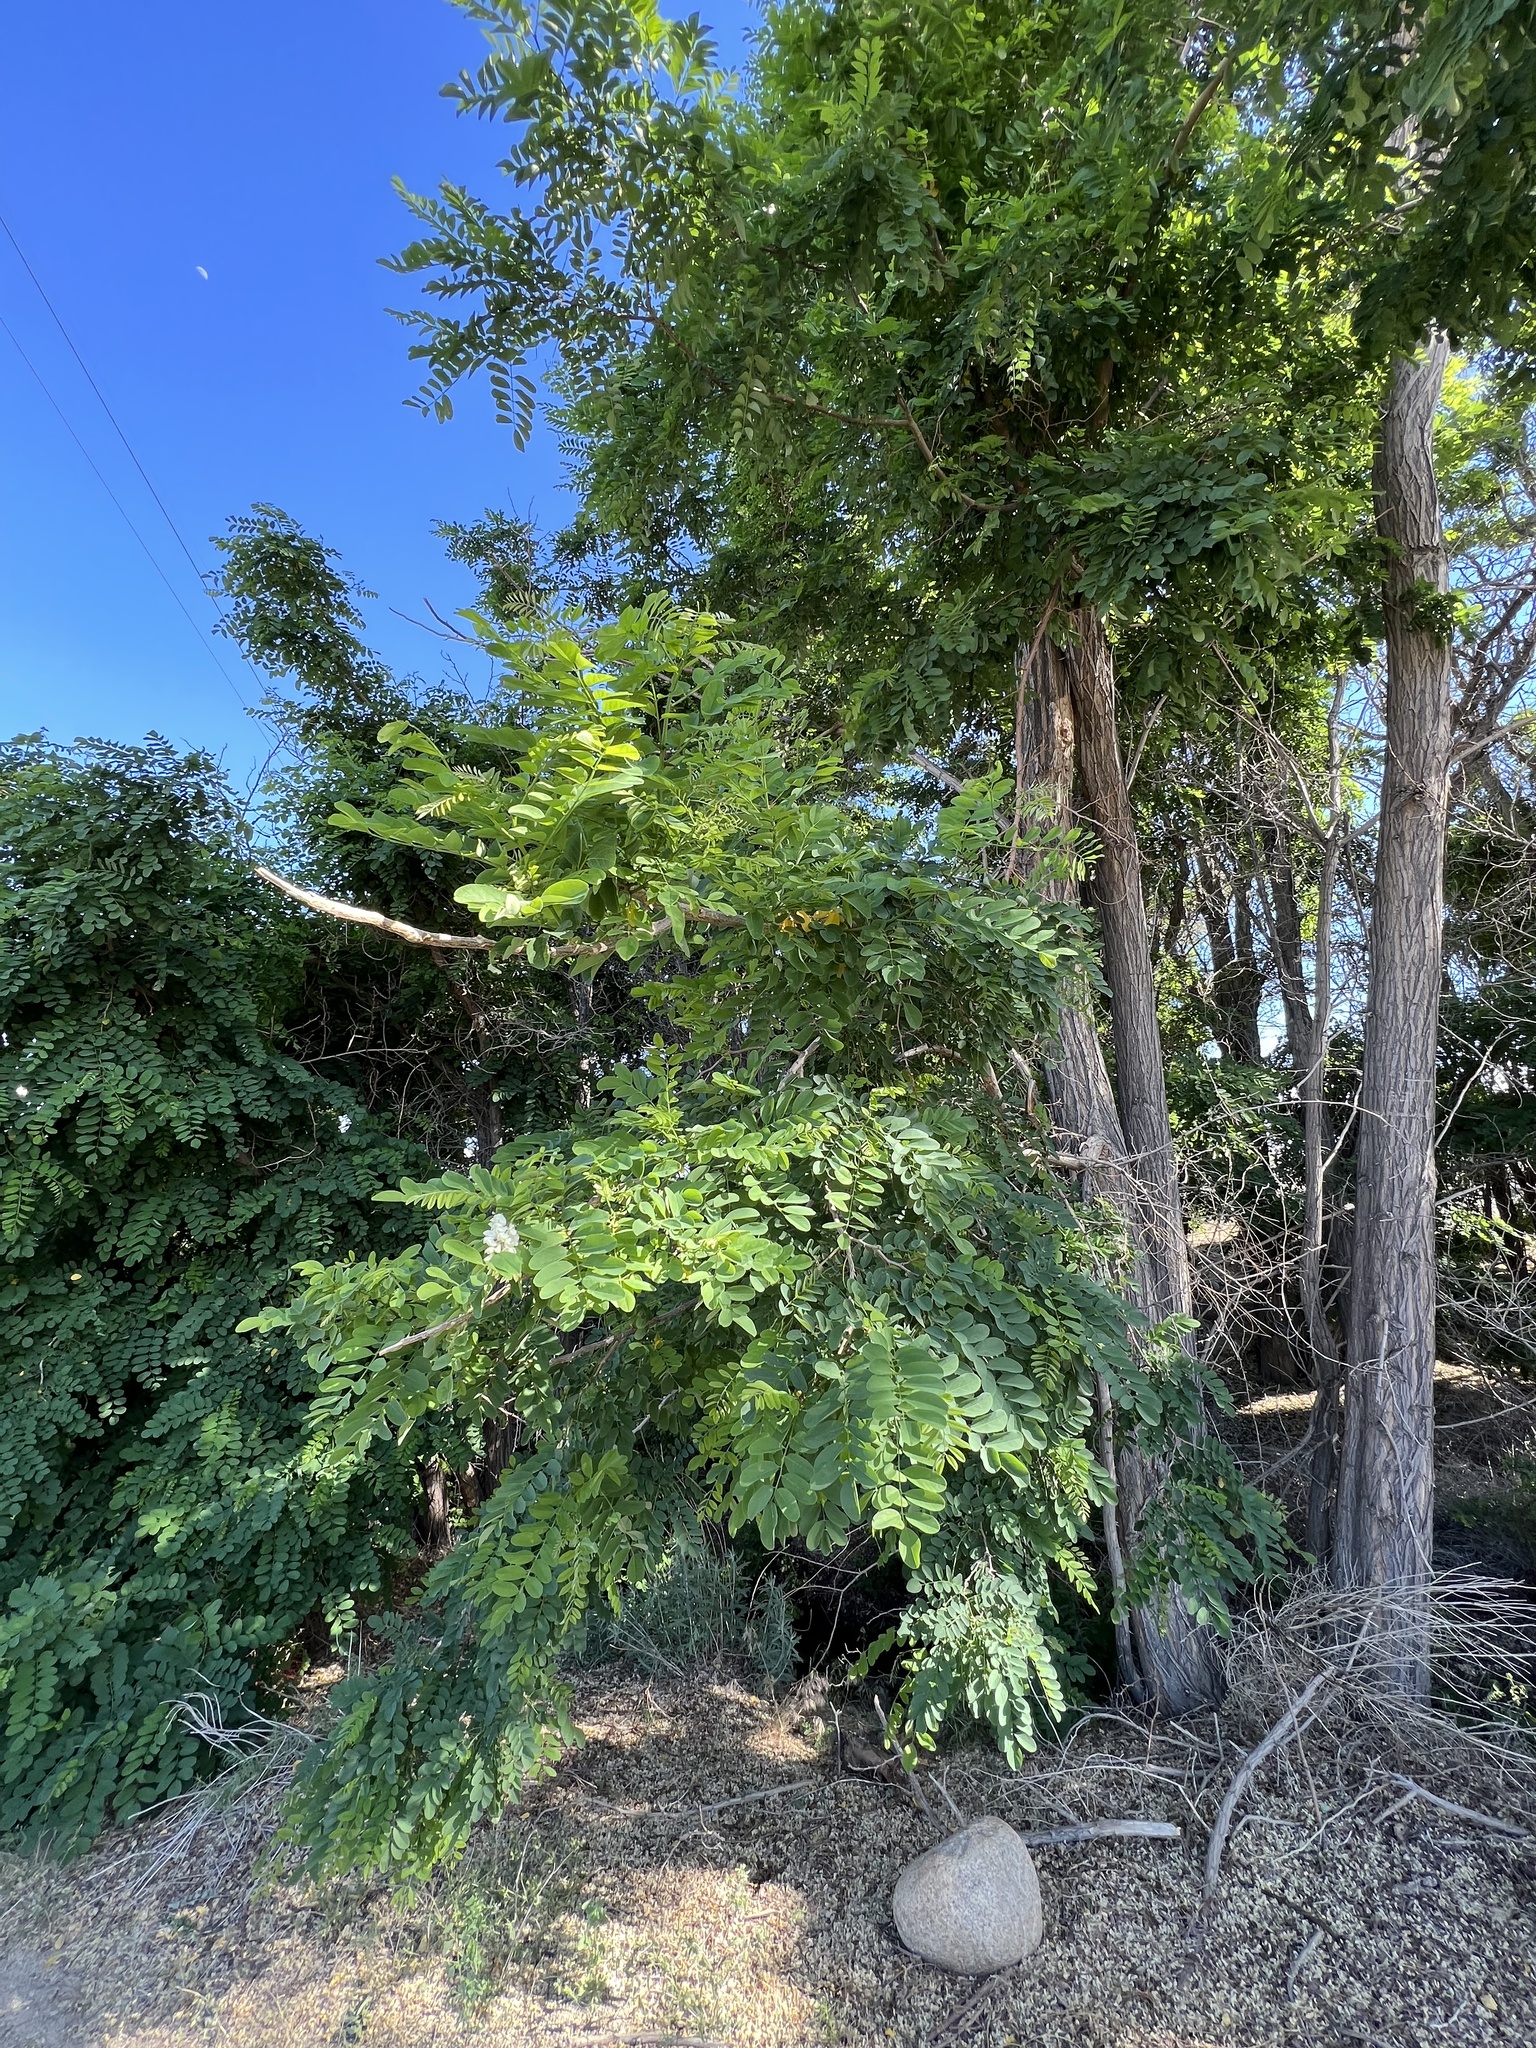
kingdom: Plantae
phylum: Tracheophyta
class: Magnoliopsida
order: Fabales
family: Fabaceae
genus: Robinia
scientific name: Robinia pseudoacacia
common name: Black locust
